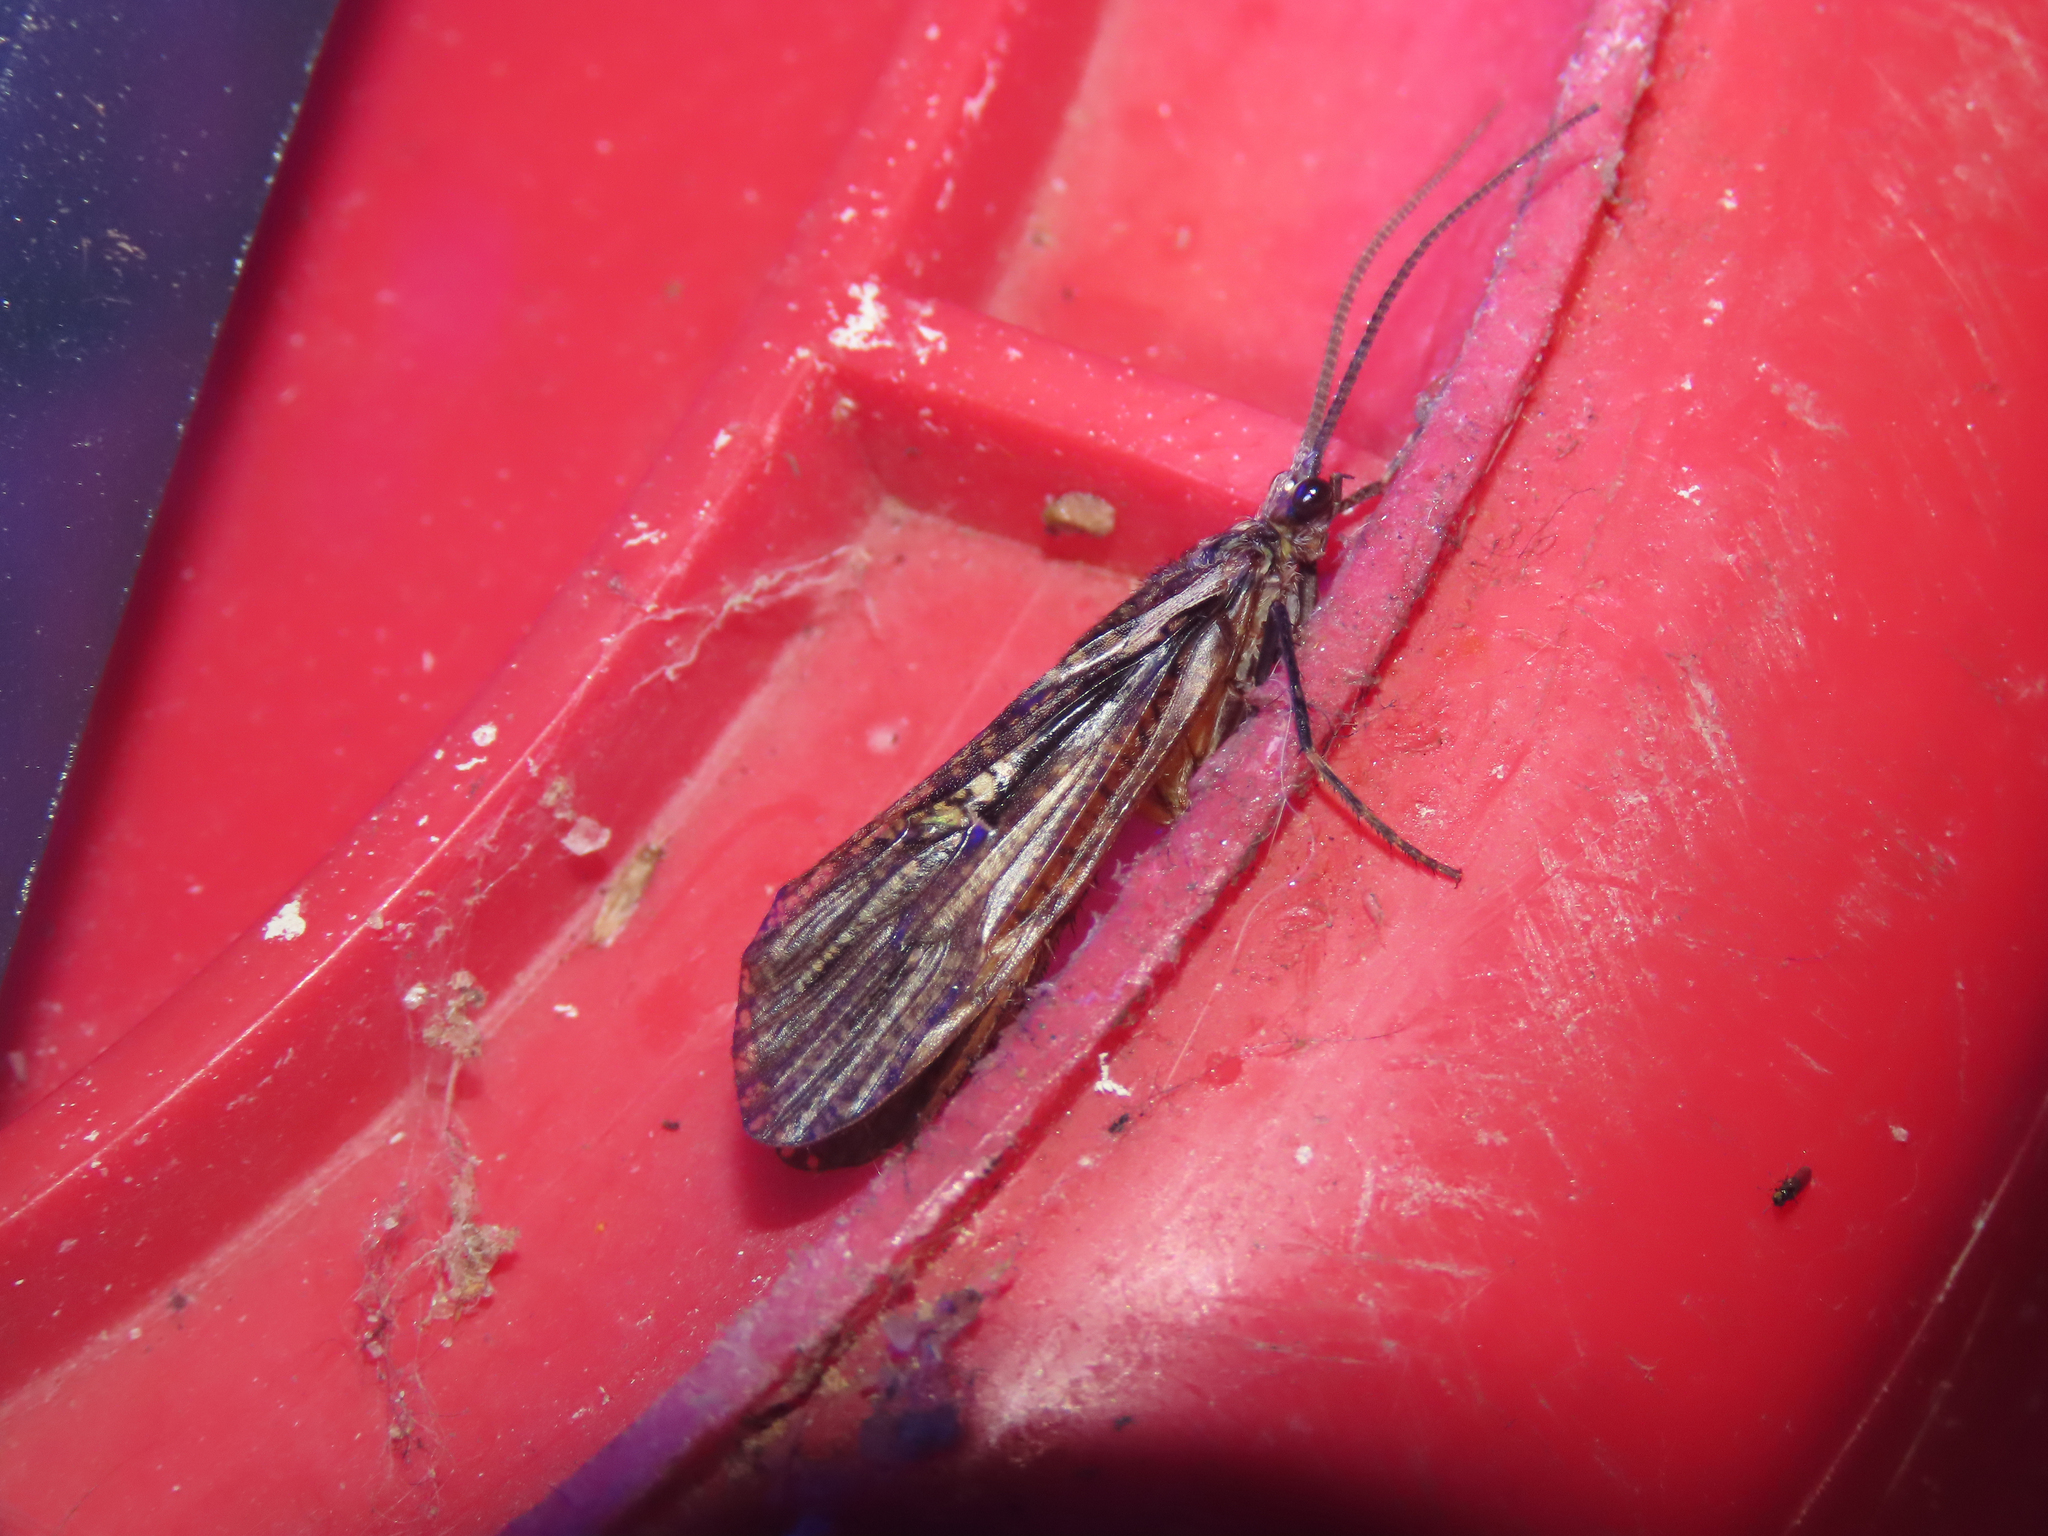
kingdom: Animalia
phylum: Arthropoda
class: Insecta
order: Trichoptera
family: Phryganeidae
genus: Phryganea
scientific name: Phryganea sayi
